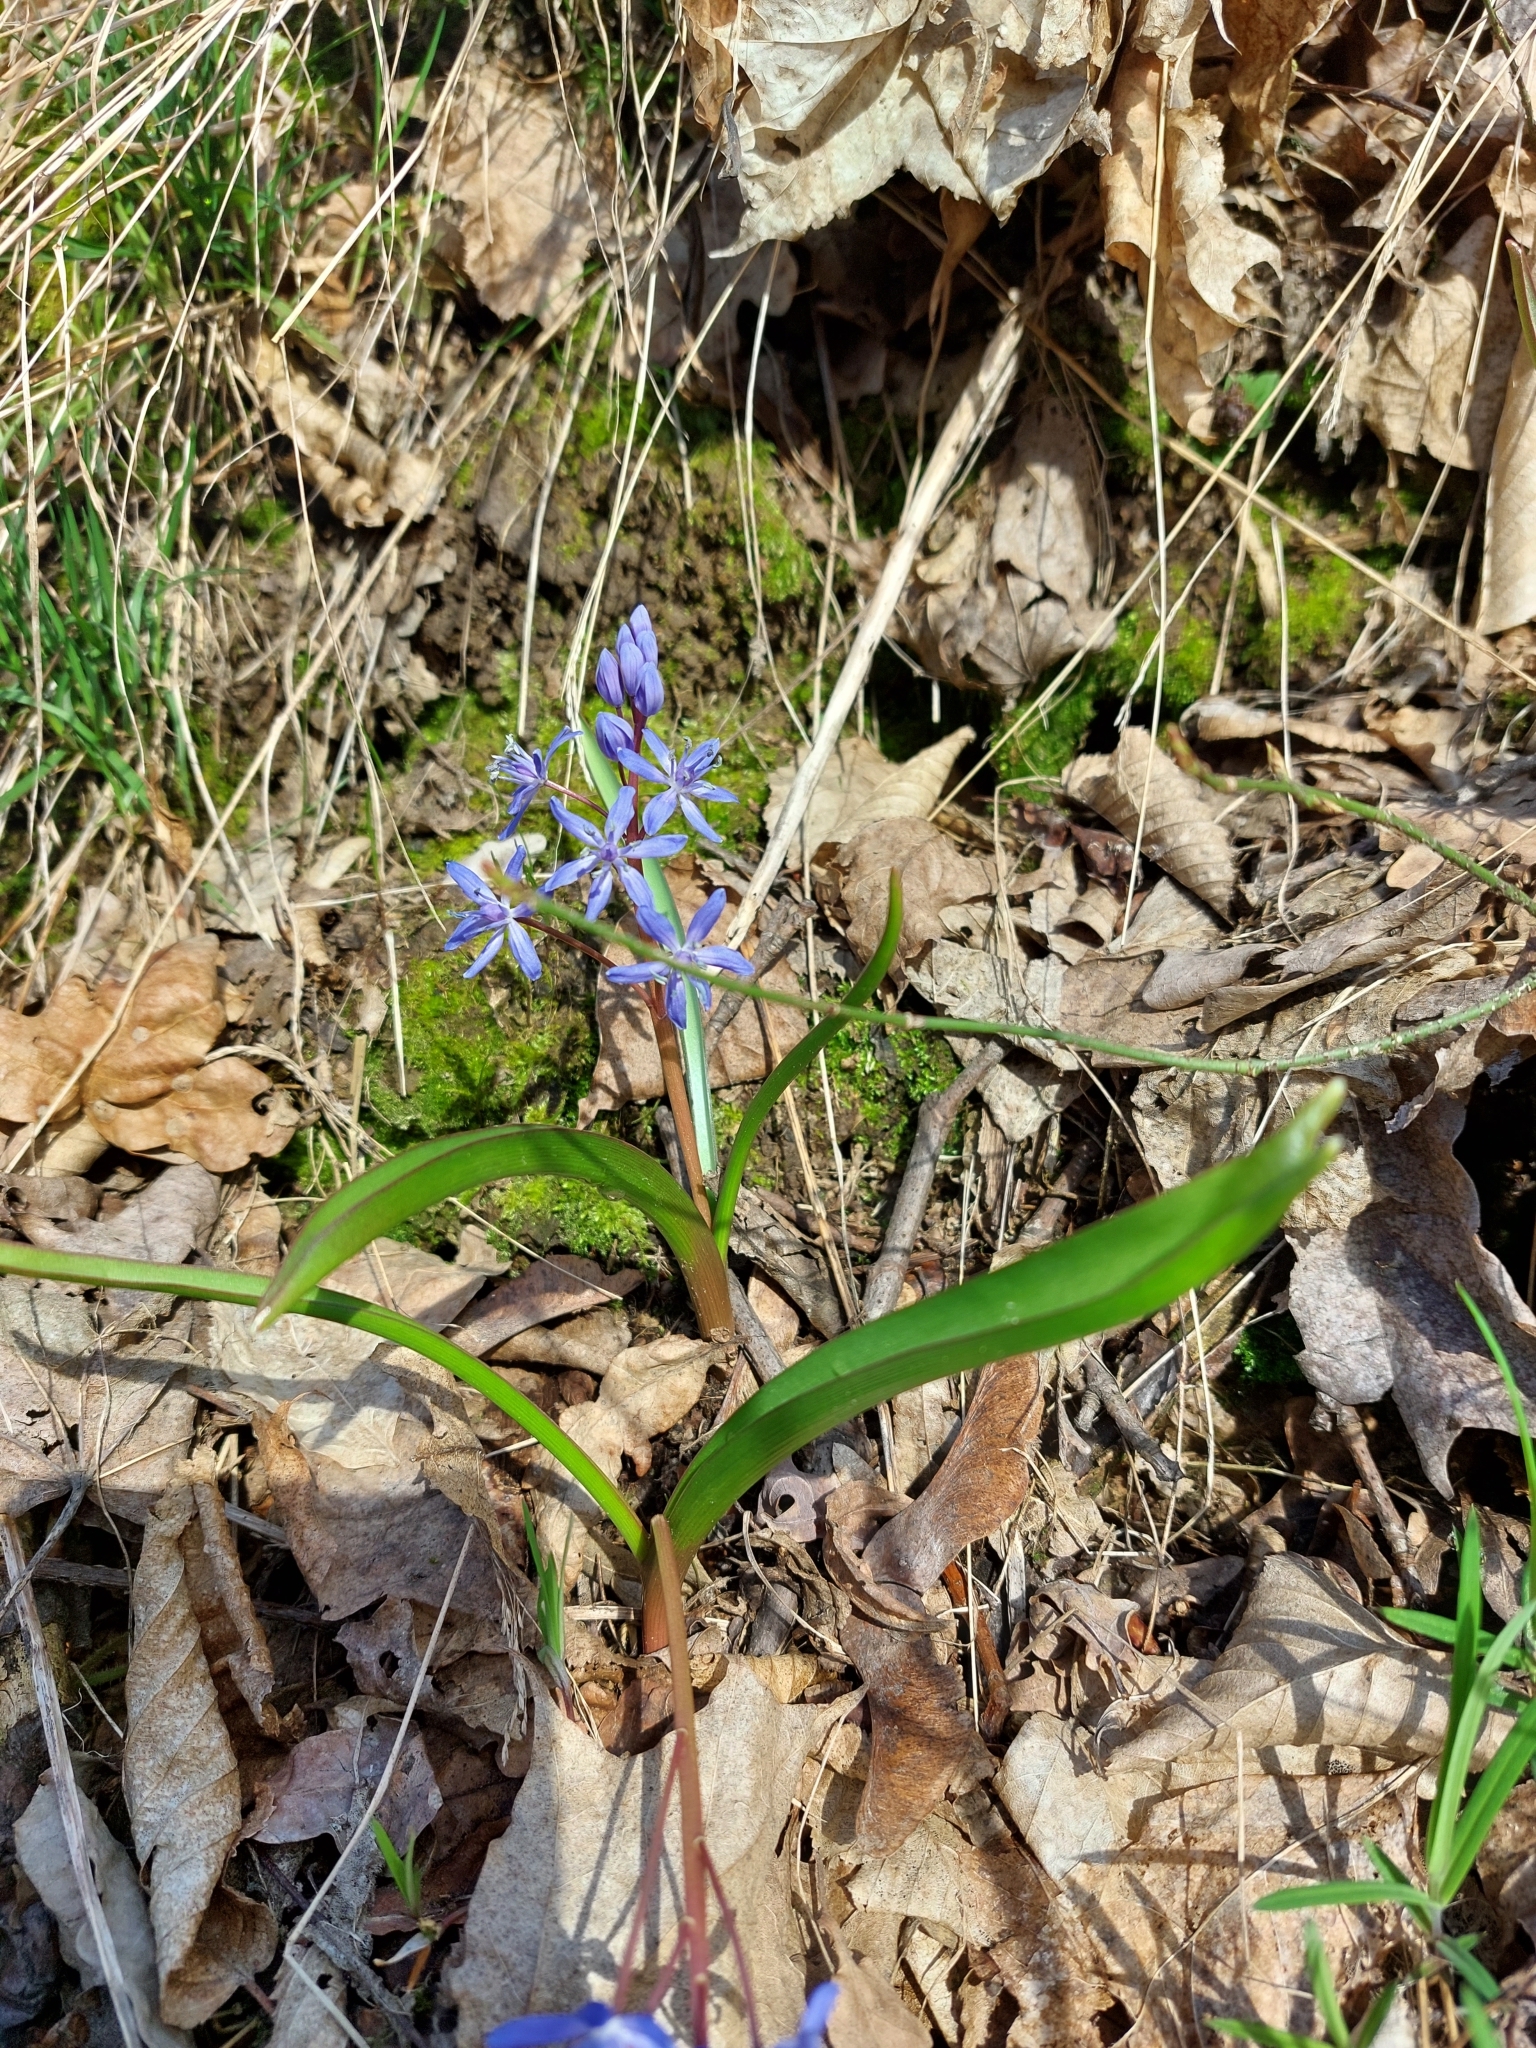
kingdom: Plantae
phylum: Tracheophyta
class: Liliopsida
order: Asparagales
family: Asparagaceae
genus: Scilla
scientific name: Scilla bifolia
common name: Alpine squill
